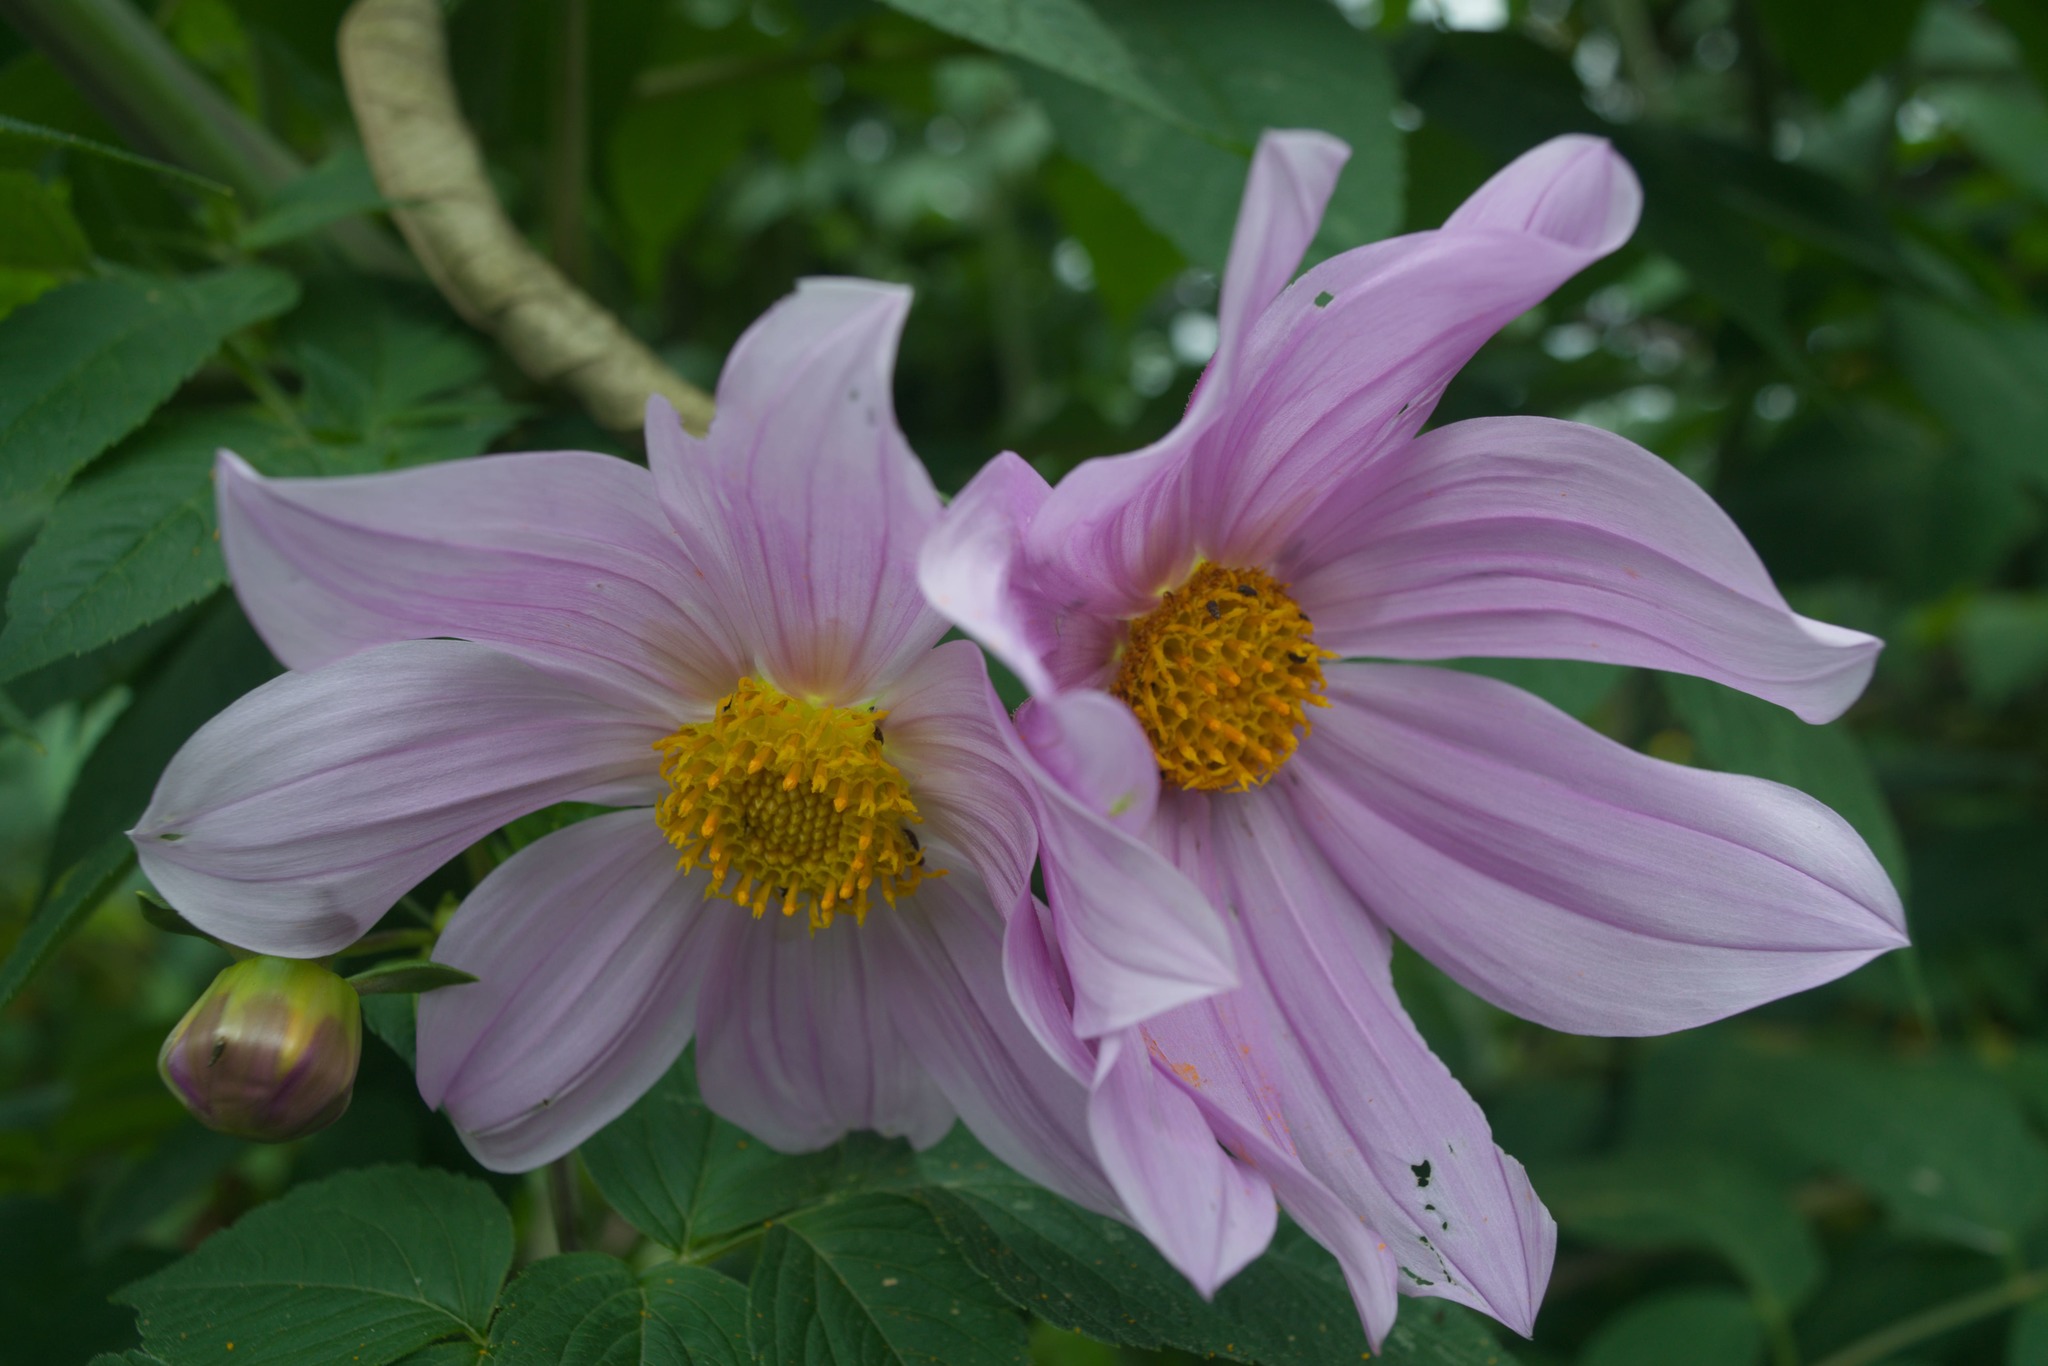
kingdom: Plantae
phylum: Tracheophyta
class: Magnoliopsida
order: Asterales
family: Asteraceae
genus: Dahlia
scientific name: Dahlia imperialis
